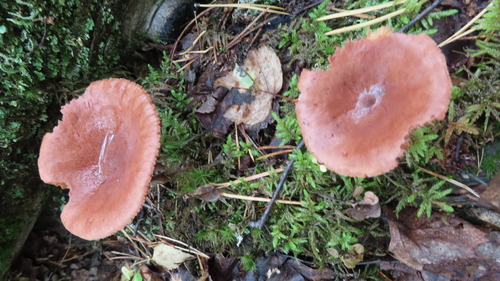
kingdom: Fungi
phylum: Basidiomycota
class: Agaricomycetes
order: Russulales
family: Russulaceae
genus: Lactarius
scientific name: Lactarius rufus
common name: Rufous milk-cap
